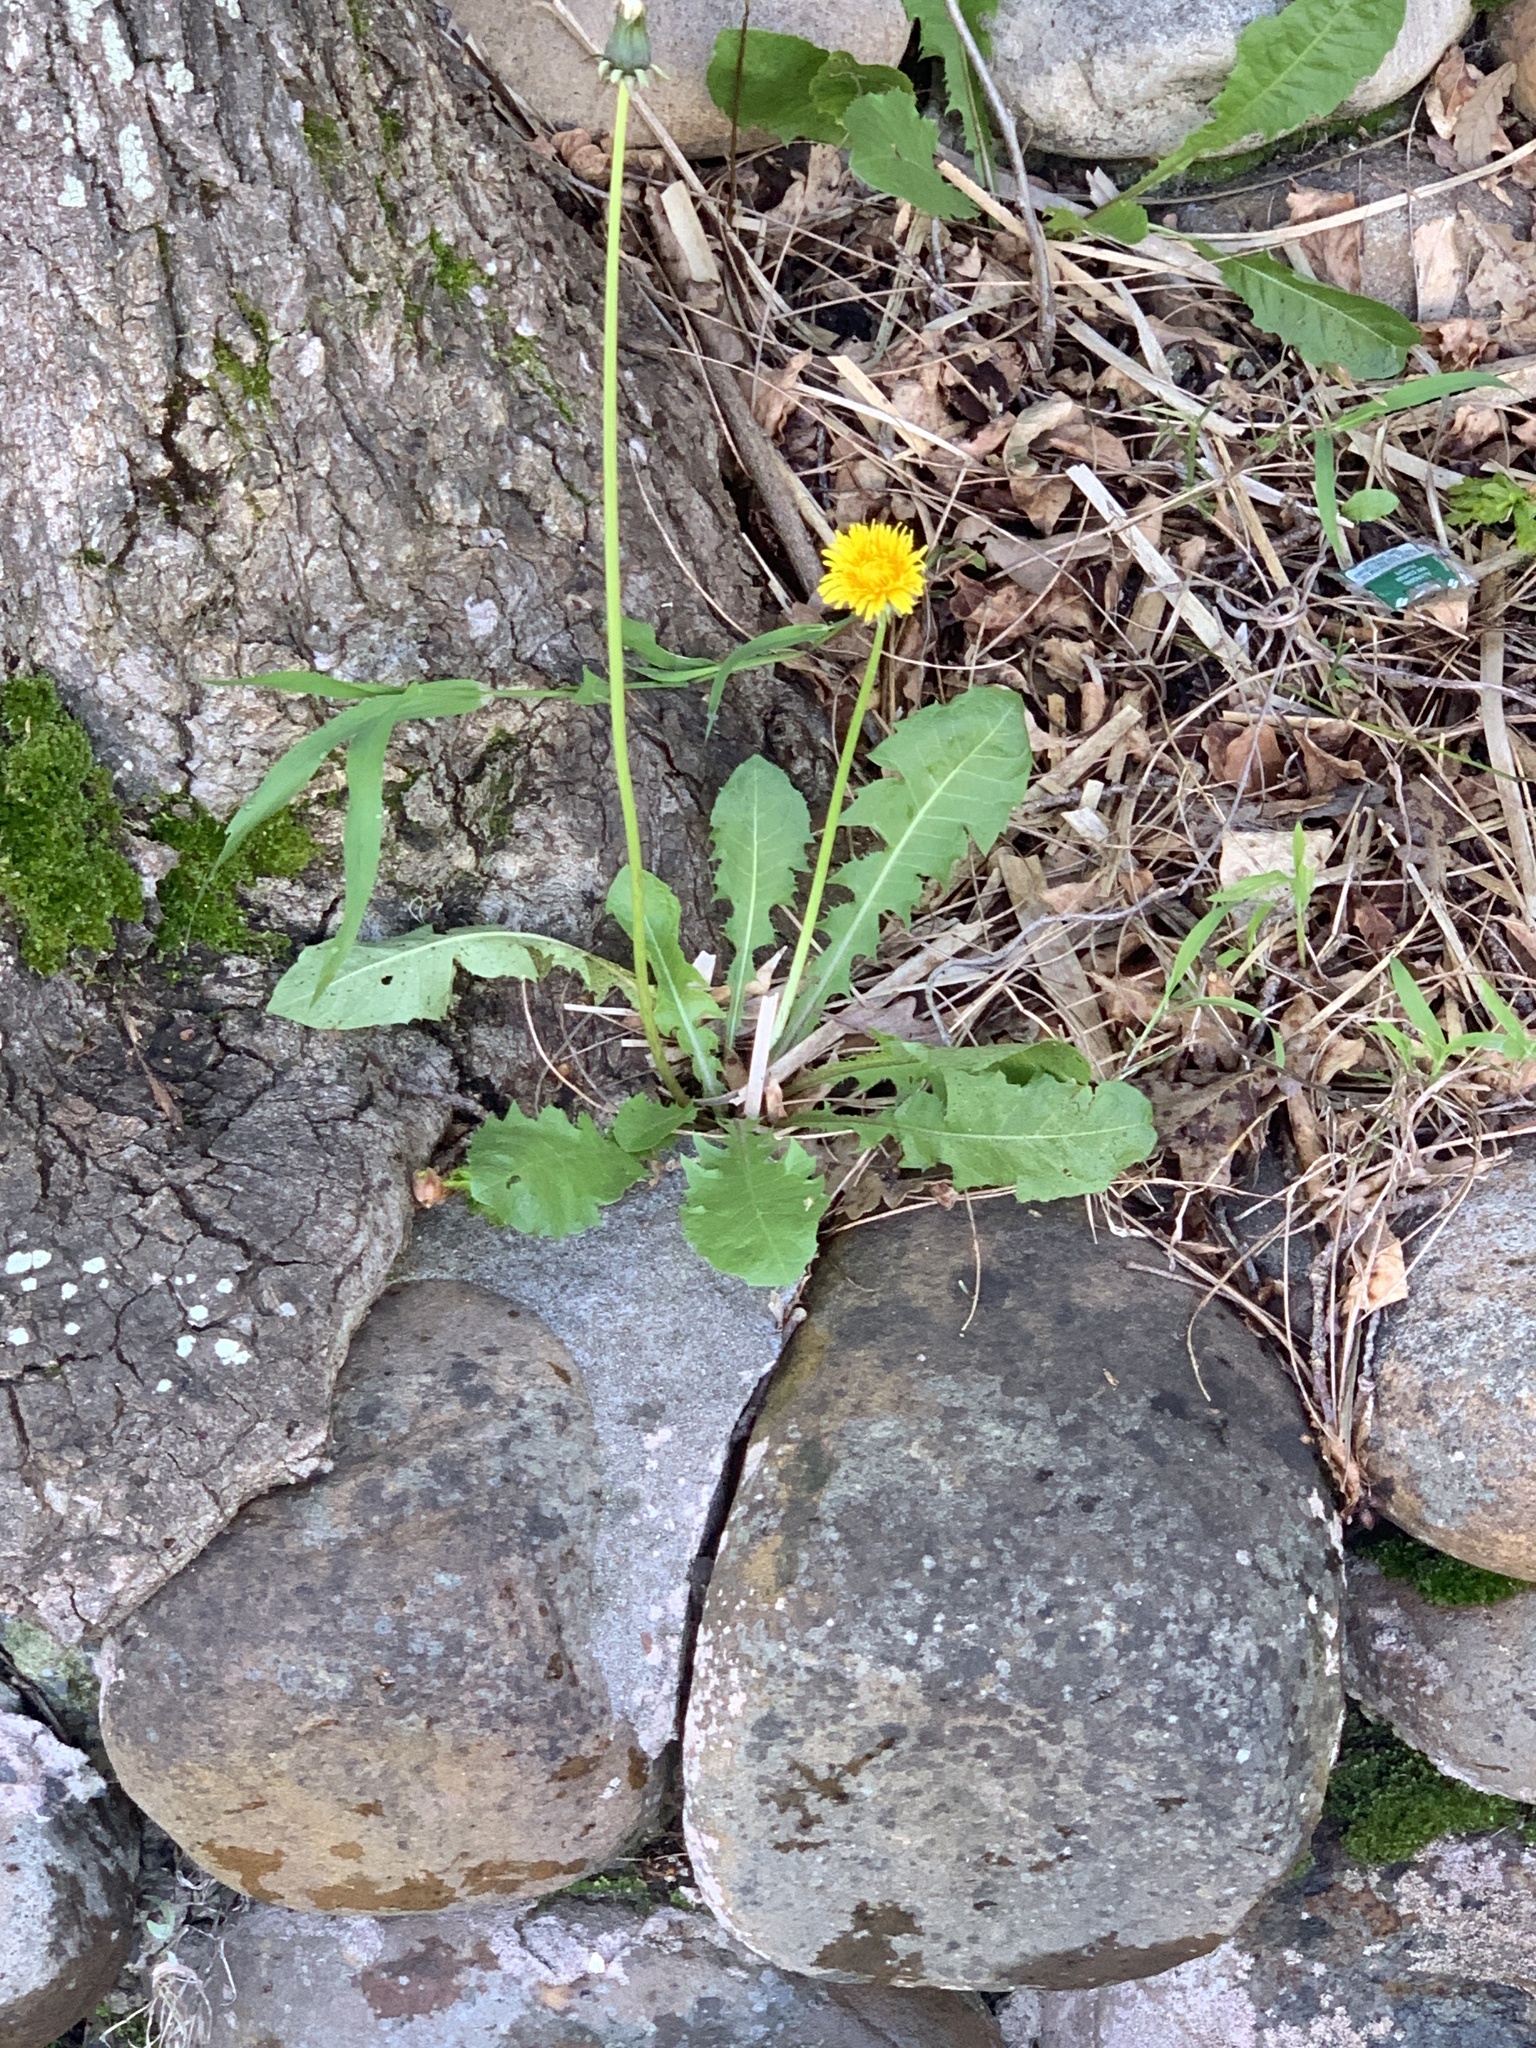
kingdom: Plantae
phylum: Tracheophyta
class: Magnoliopsida
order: Asterales
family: Asteraceae
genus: Taraxacum
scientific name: Taraxacum officinale
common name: Common dandelion
